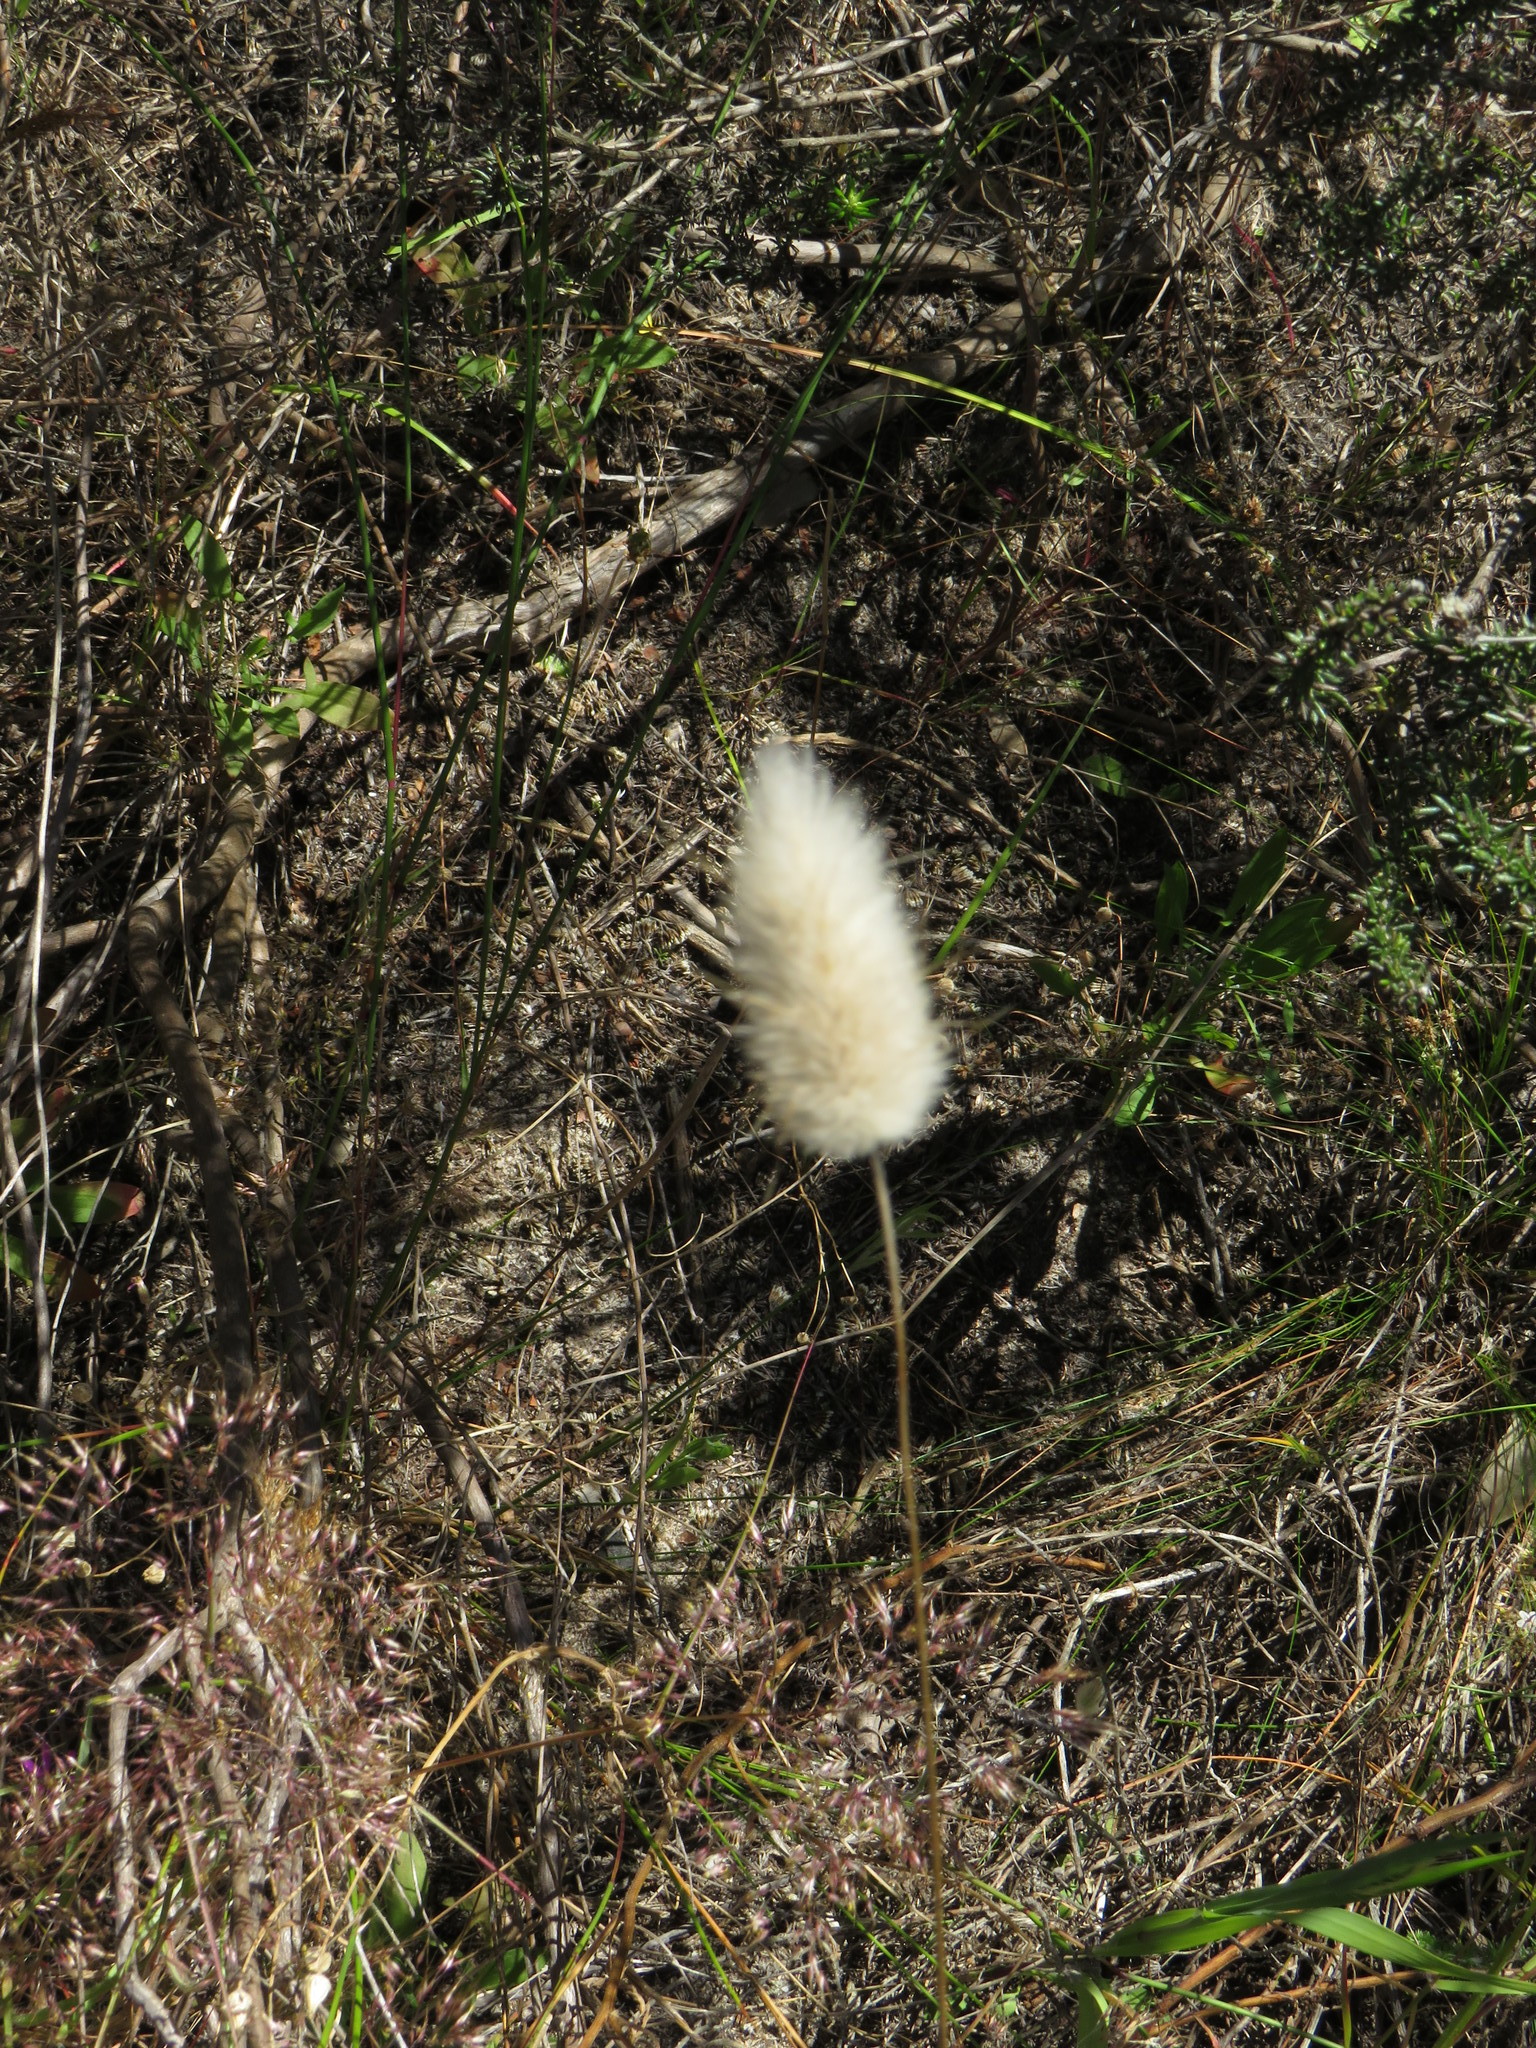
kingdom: Plantae
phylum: Tracheophyta
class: Liliopsida
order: Poales
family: Poaceae
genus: Lagurus
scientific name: Lagurus ovatus
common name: Hare's-tail
